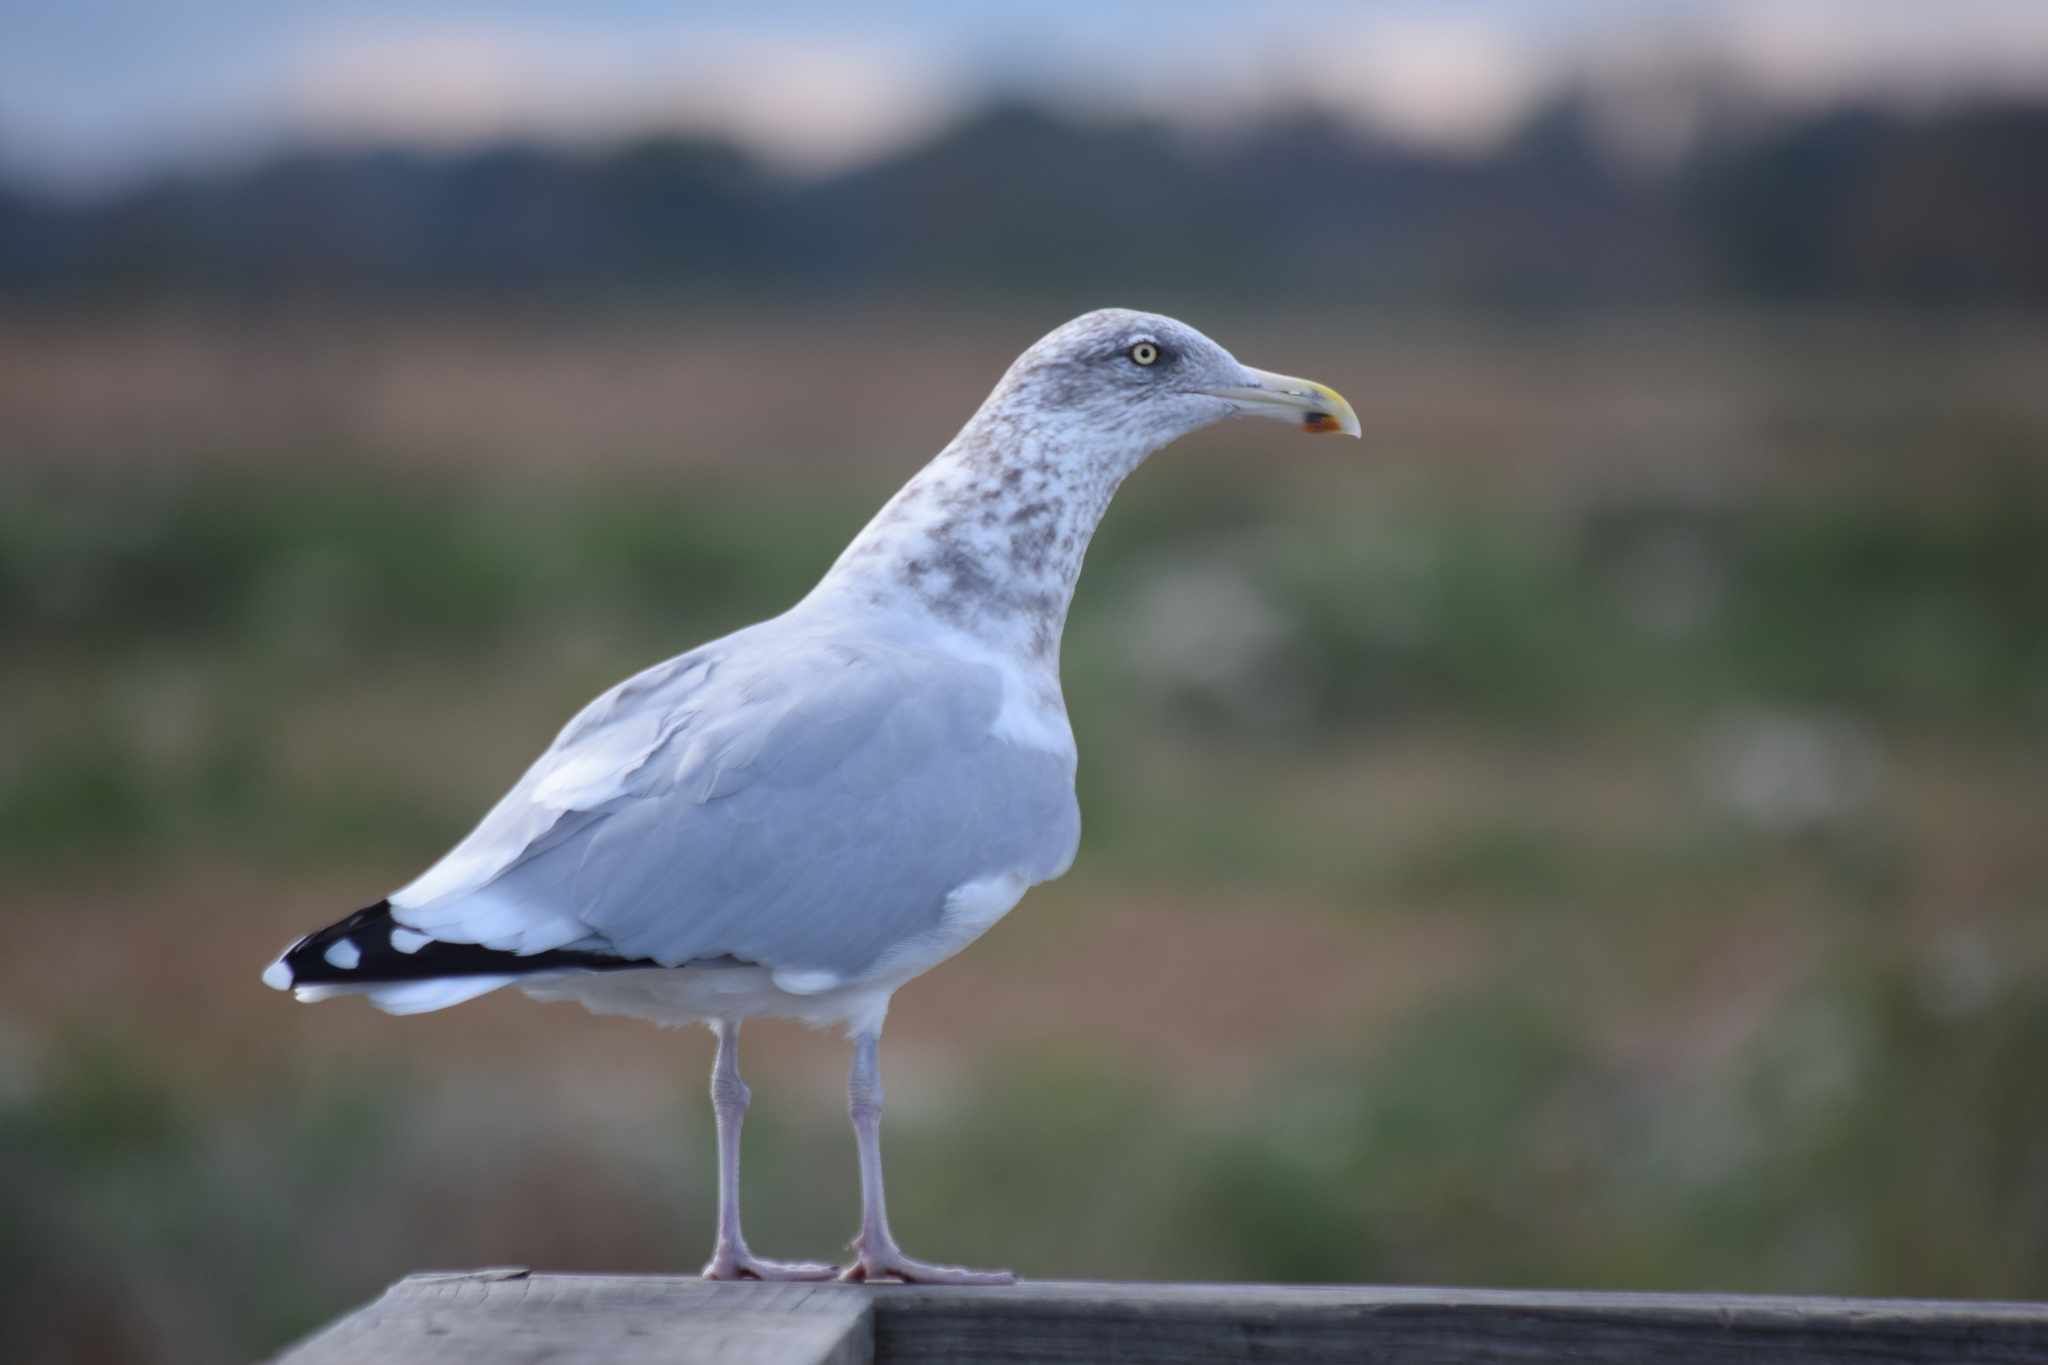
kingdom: Animalia
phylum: Chordata
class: Aves
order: Charadriiformes
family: Laridae
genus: Larus
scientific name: Larus argentatus
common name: Herring gull
